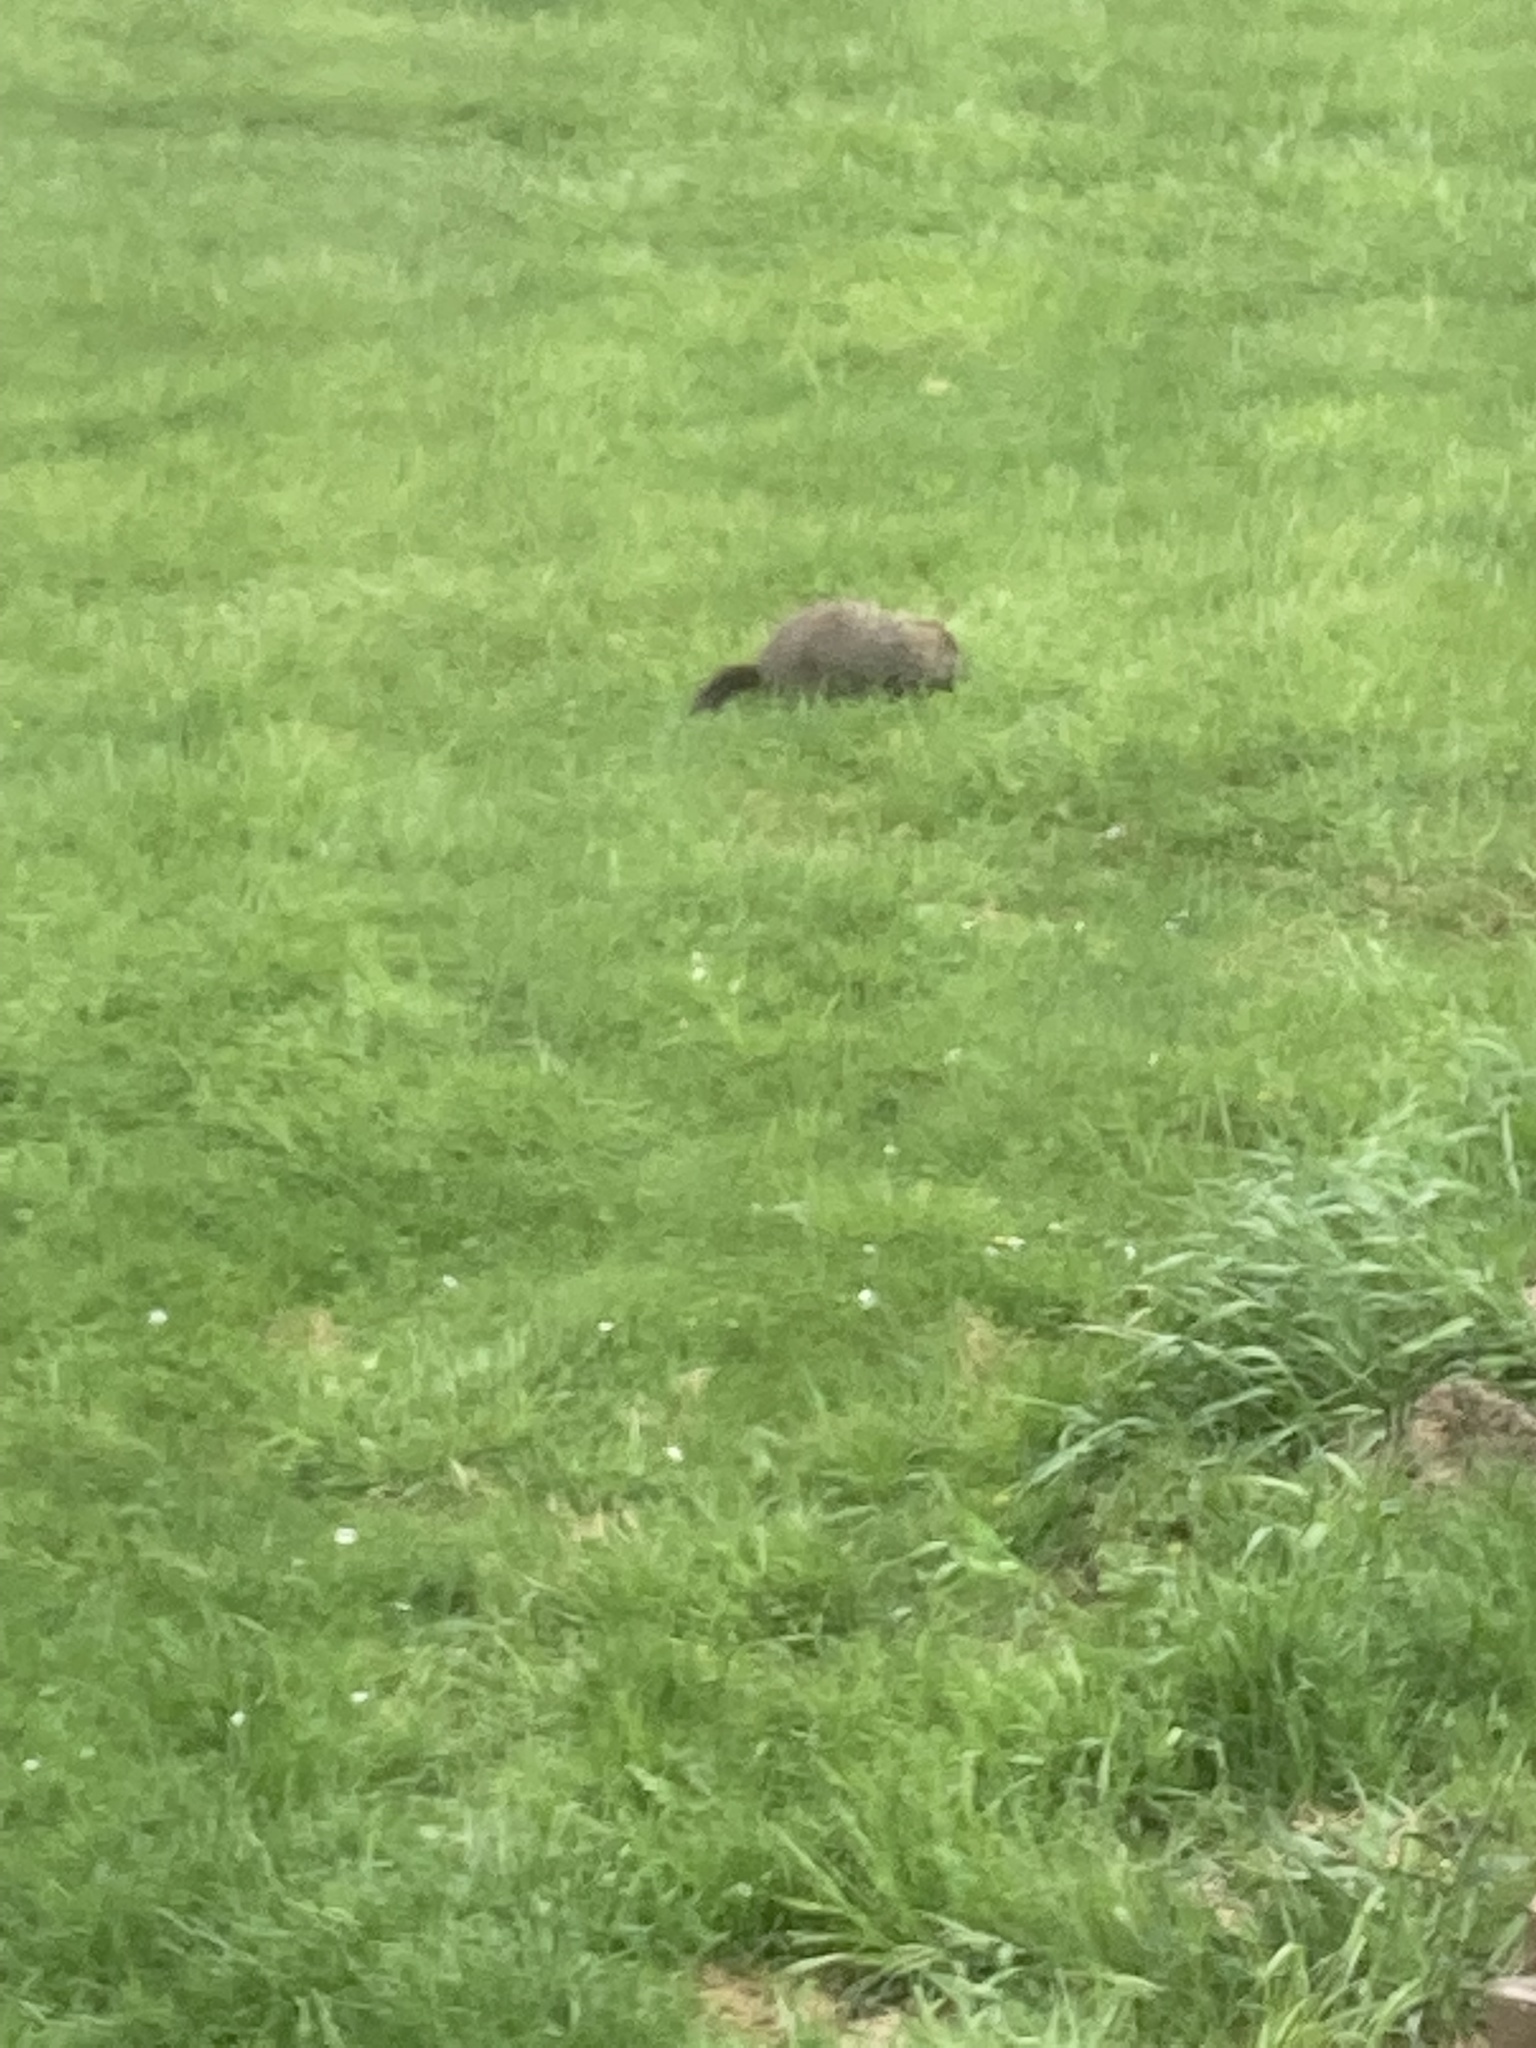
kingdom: Animalia
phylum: Chordata
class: Mammalia
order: Rodentia
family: Sciuridae
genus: Marmota
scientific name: Marmota monax
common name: Groundhog
